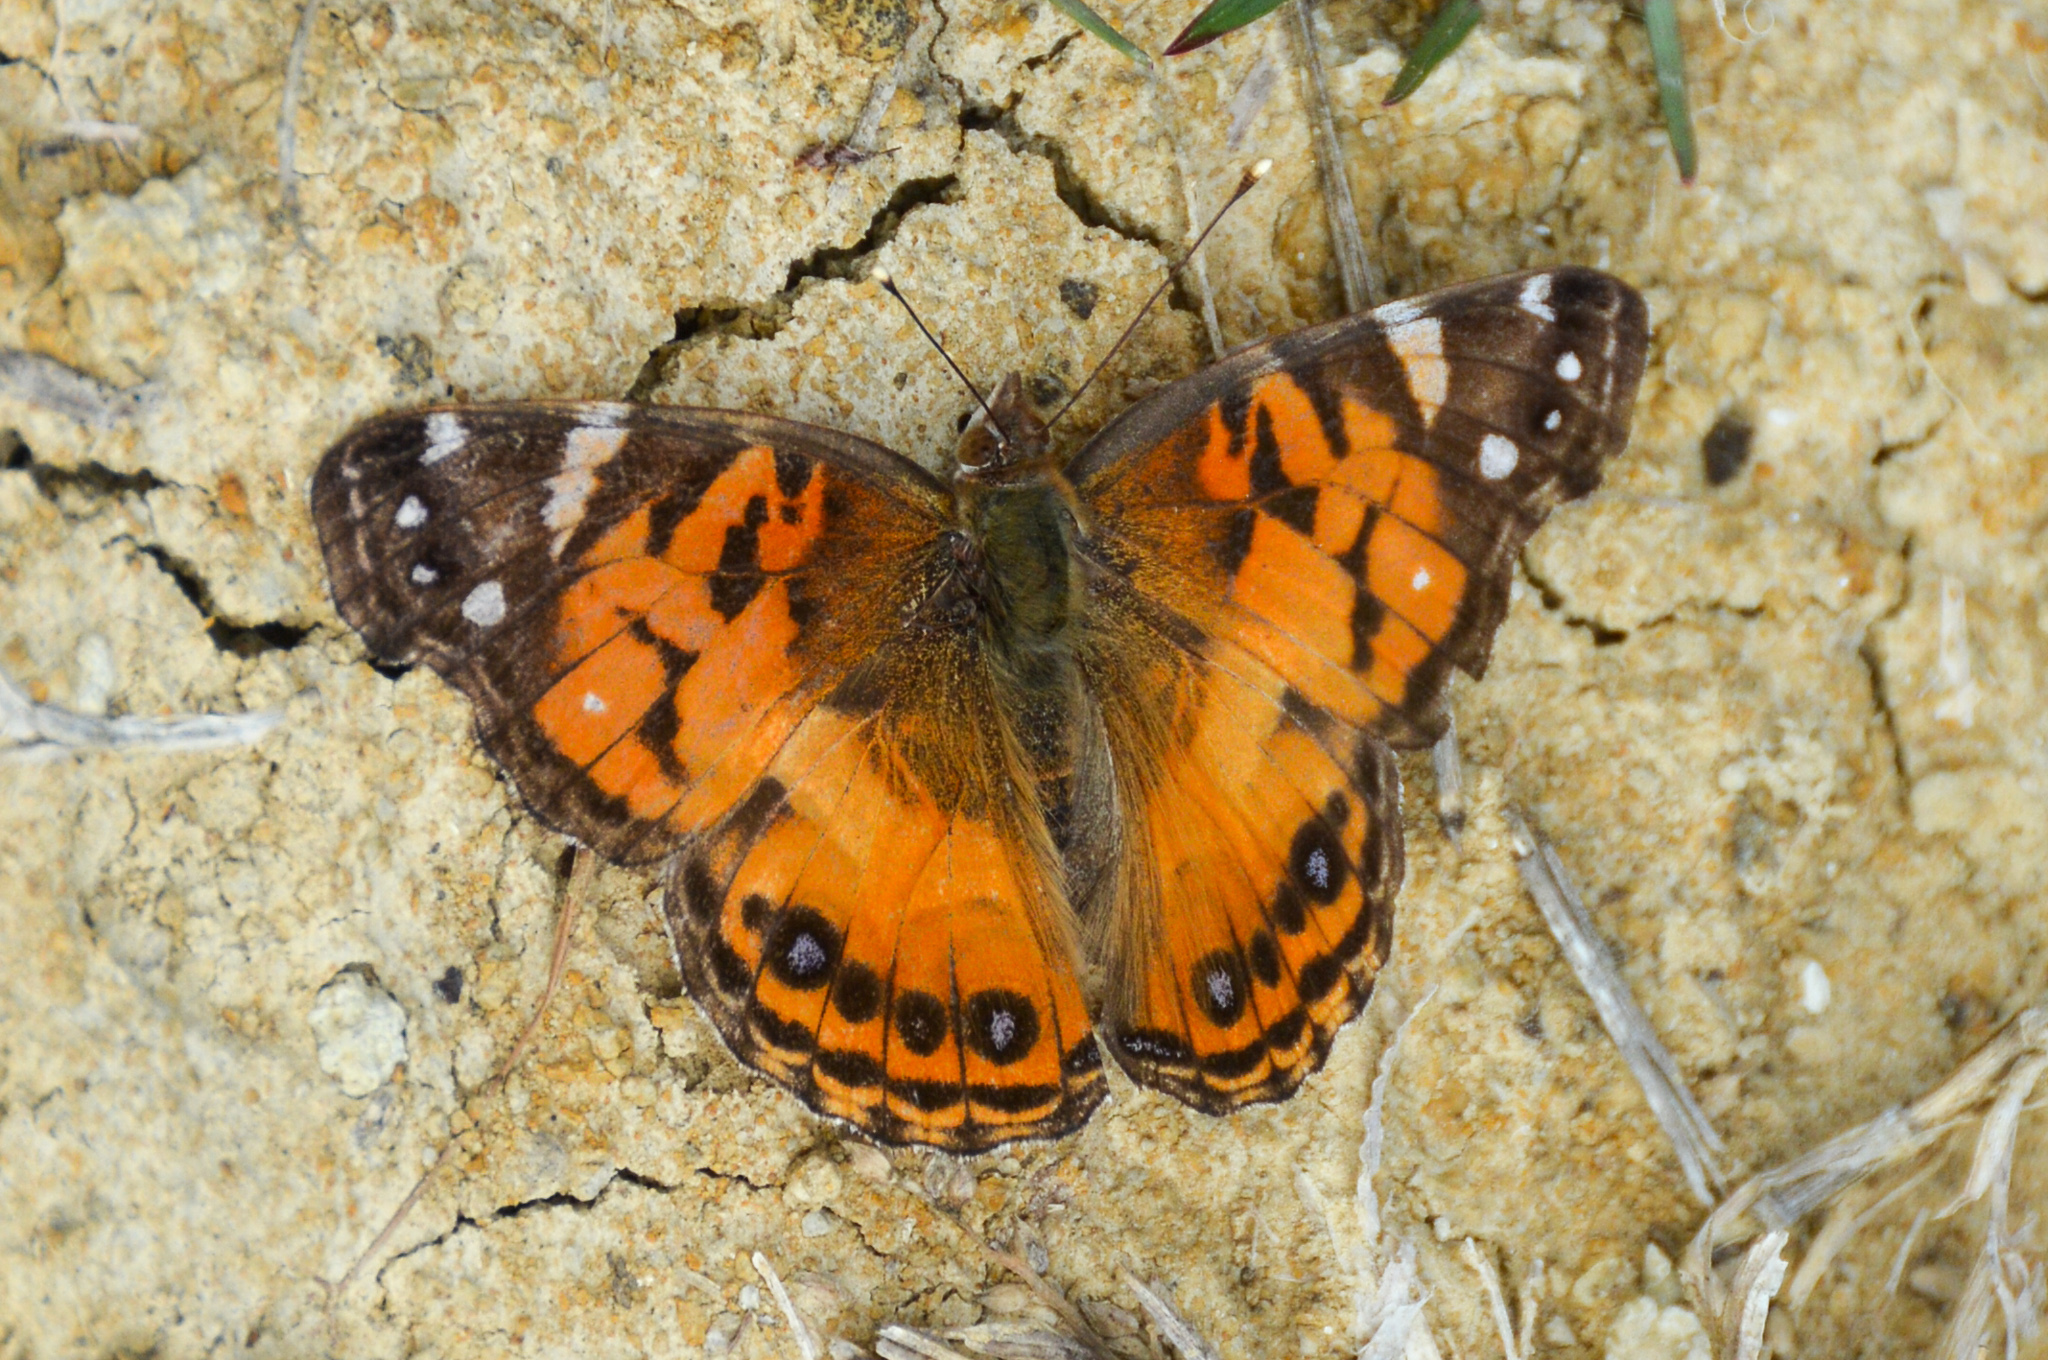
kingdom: Animalia
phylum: Arthropoda
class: Insecta
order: Lepidoptera
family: Nymphalidae
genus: Vanessa
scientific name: Vanessa virginiensis
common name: American lady
